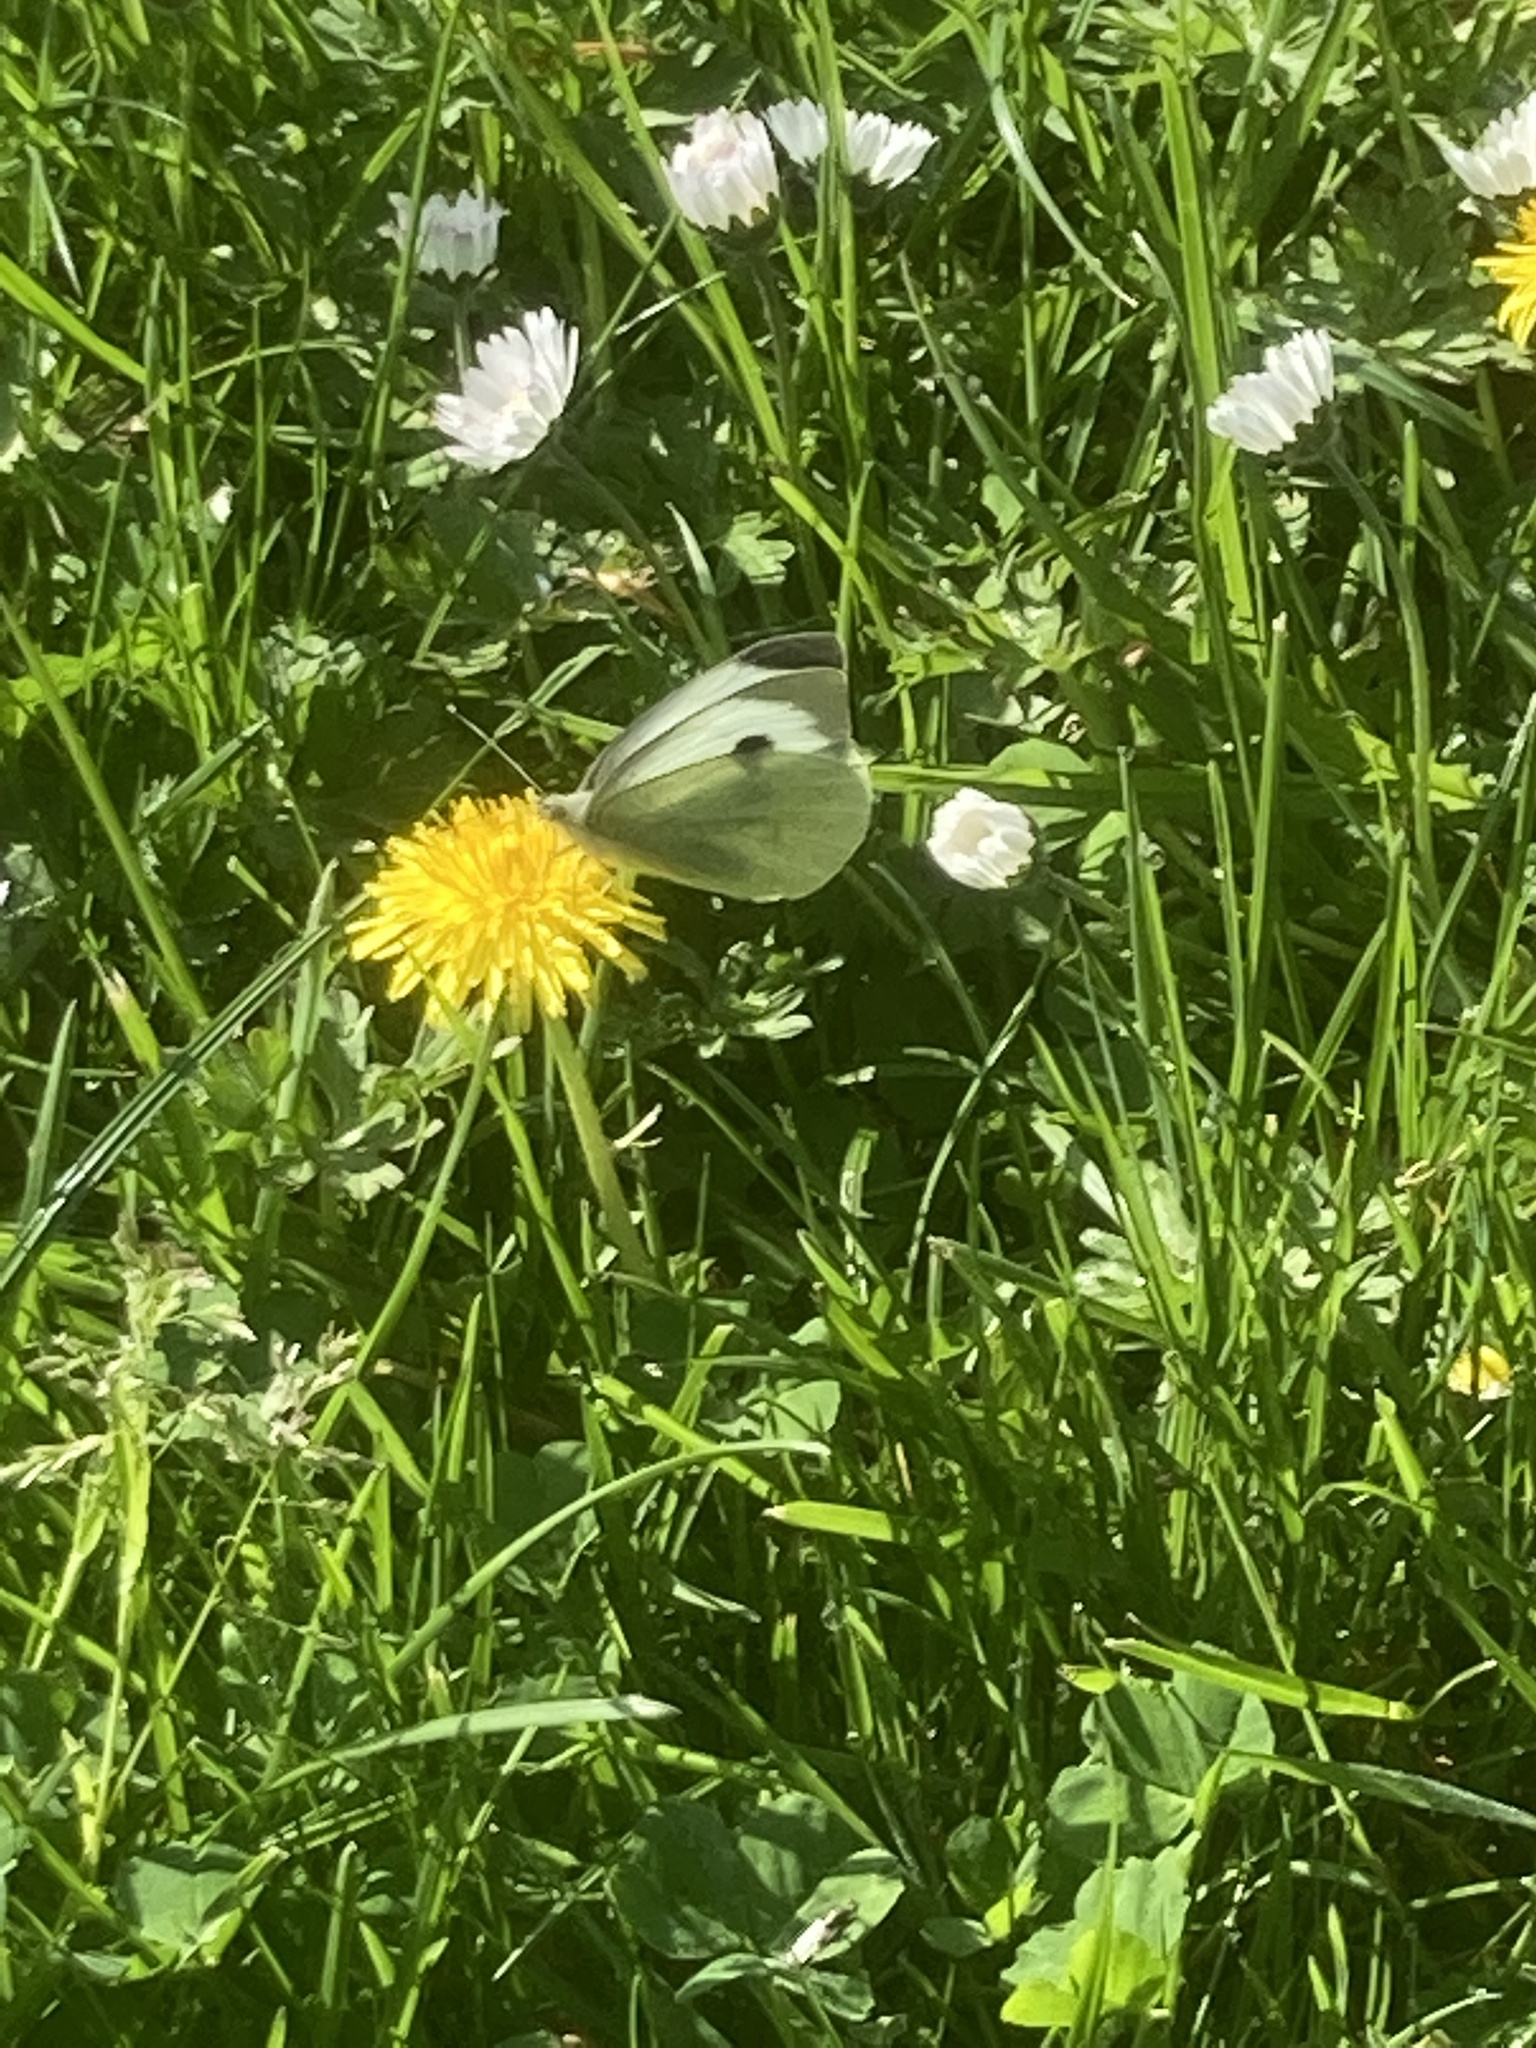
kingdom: Animalia
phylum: Arthropoda
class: Insecta
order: Lepidoptera
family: Pieridae
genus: Pieris
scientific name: Pieris brassicae
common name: Large white
